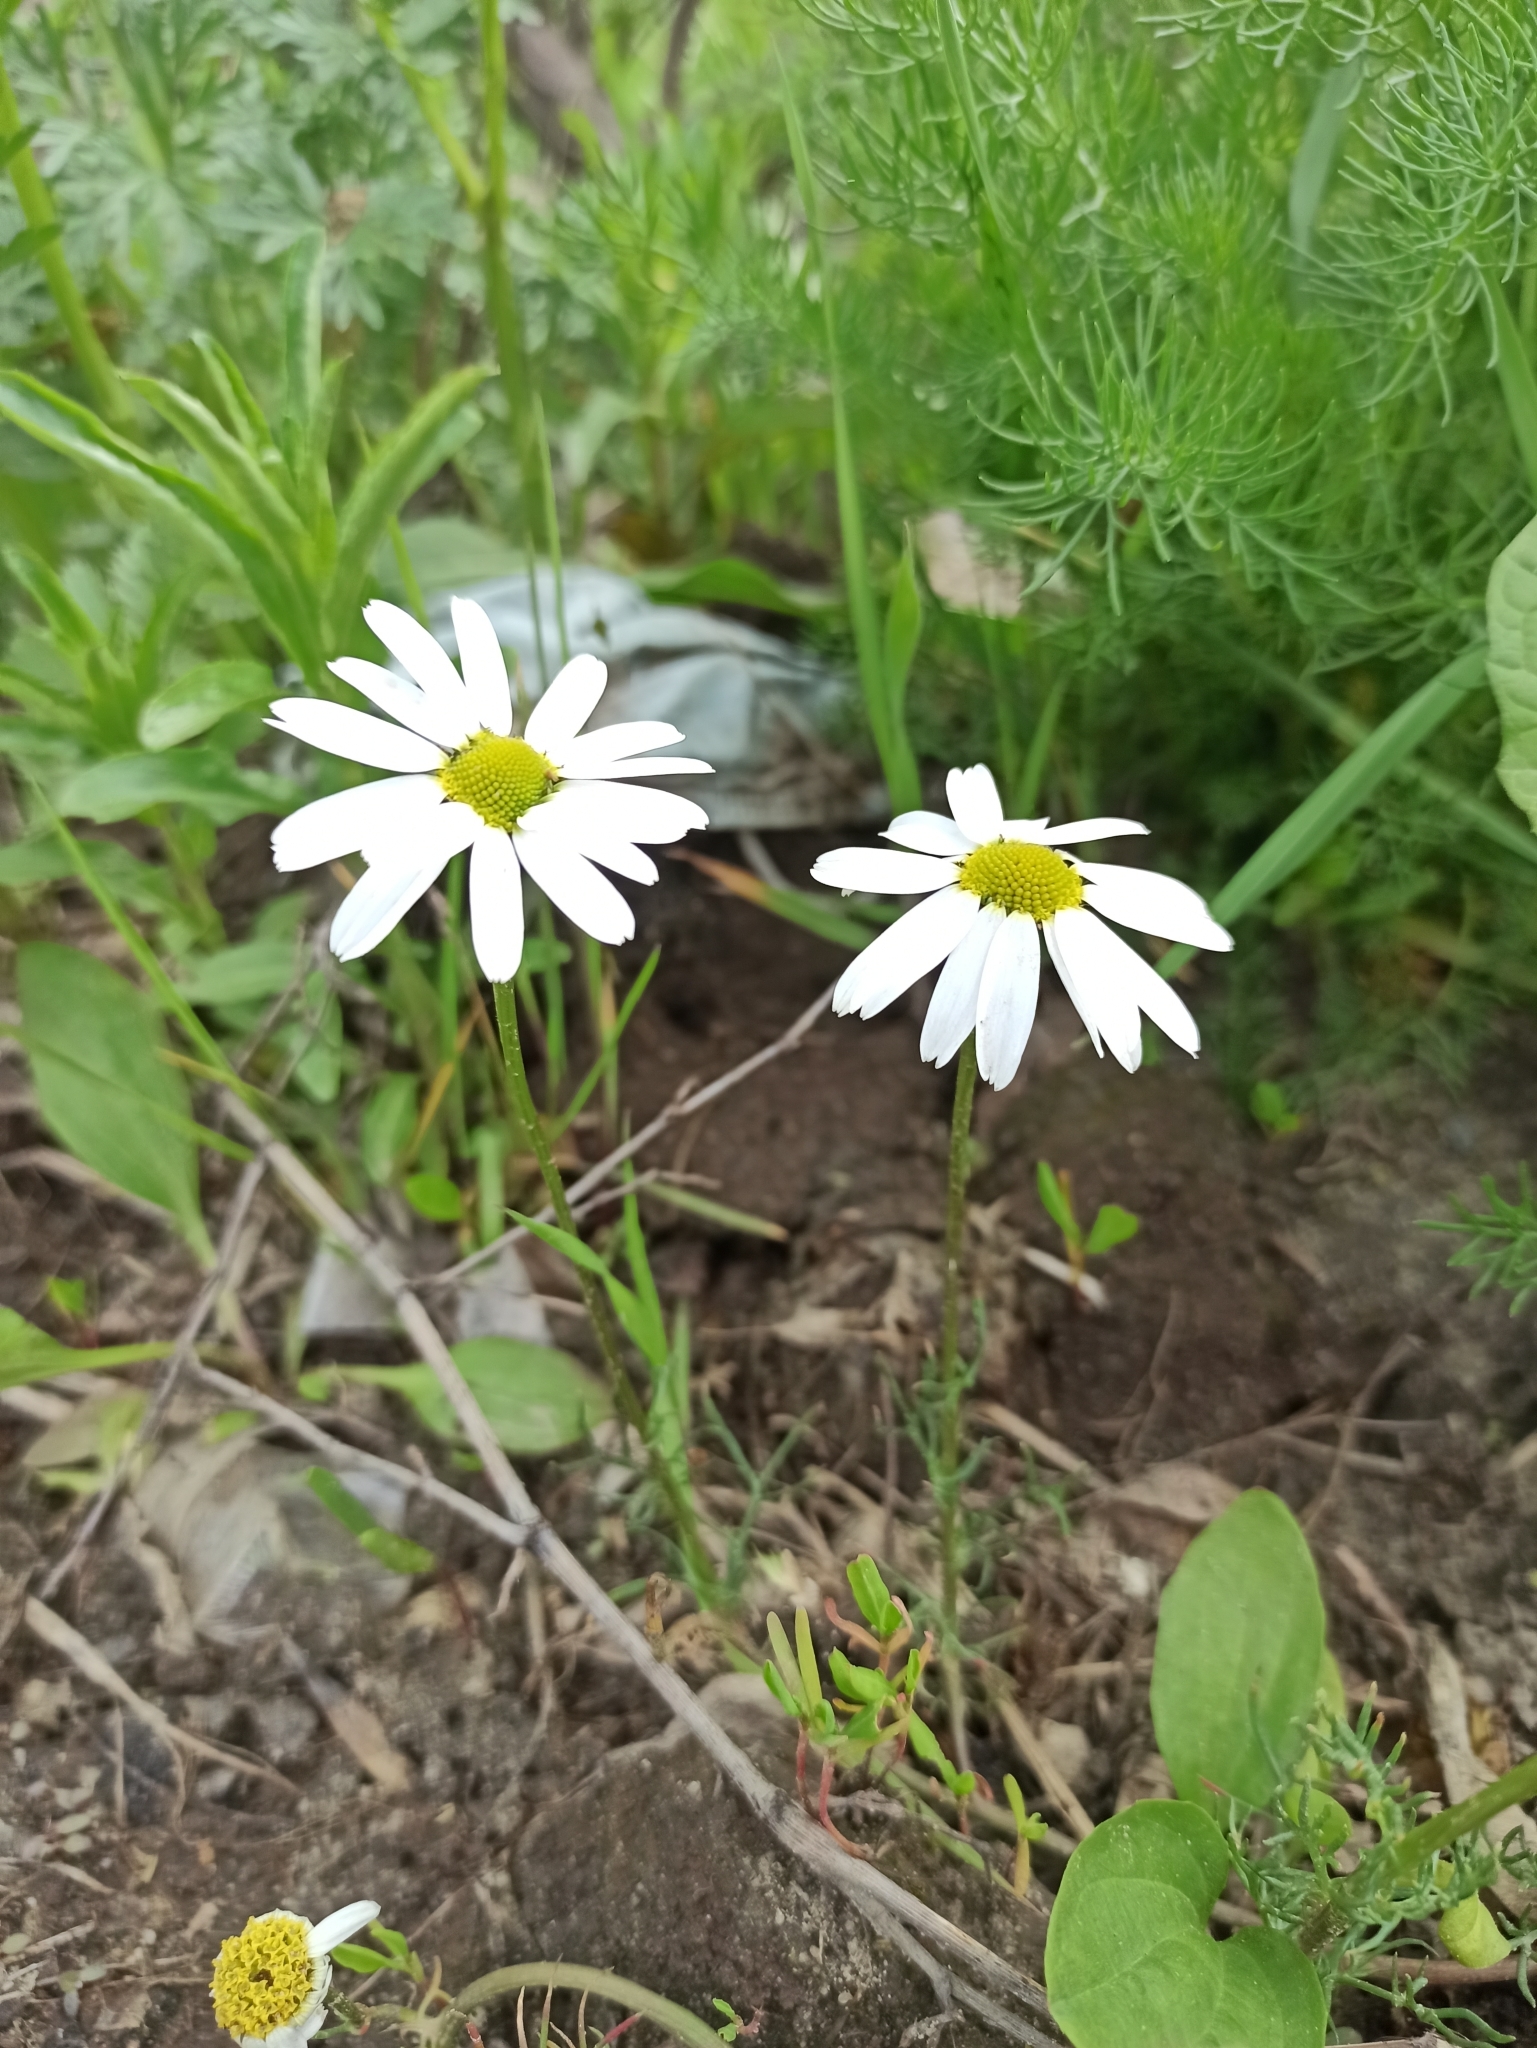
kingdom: Plantae
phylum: Tracheophyta
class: Magnoliopsida
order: Asterales
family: Asteraceae
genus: Tripleurospermum
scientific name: Tripleurospermum inodorum
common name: Scentless mayweed
